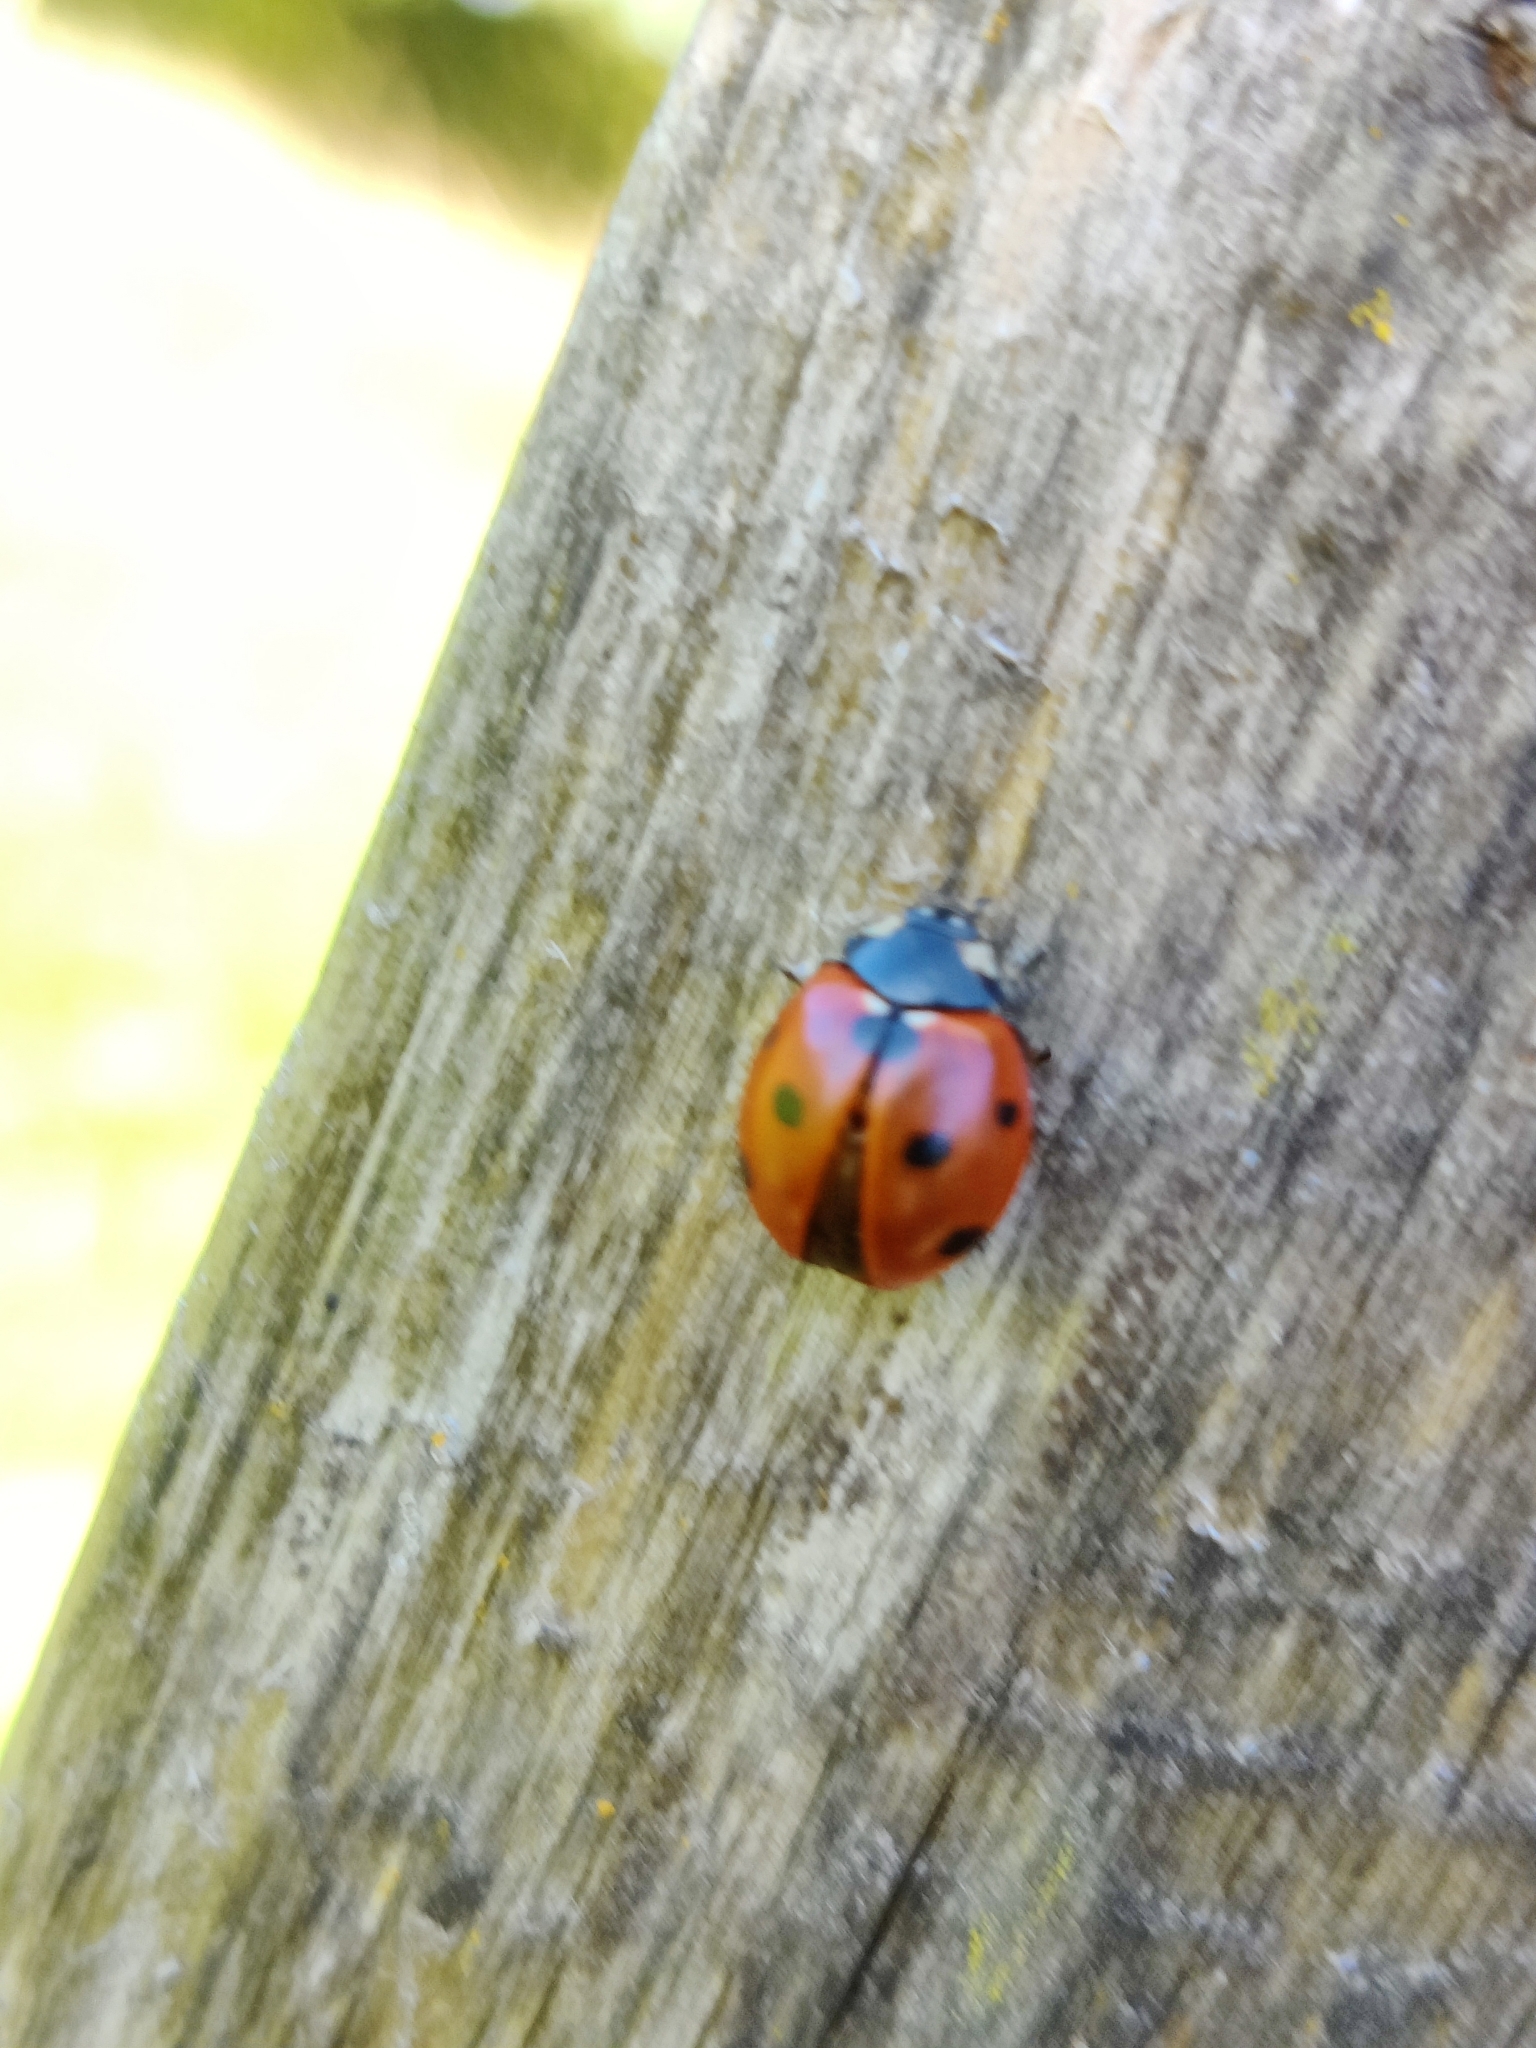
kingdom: Animalia
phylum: Arthropoda
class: Insecta
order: Coleoptera
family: Coccinellidae
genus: Coccinella
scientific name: Coccinella septempunctata
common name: Sevenspotted lady beetle
